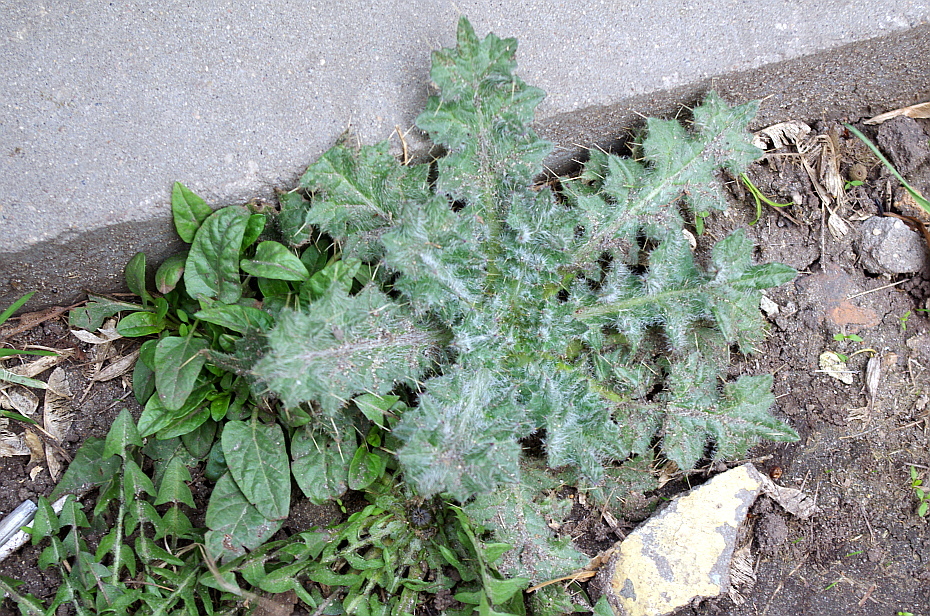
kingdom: Plantae
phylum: Tracheophyta
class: Magnoliopsida
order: Asterales
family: Asteraceae
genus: Cirsium
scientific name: Cirsium vulgare
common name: Bull thistle
